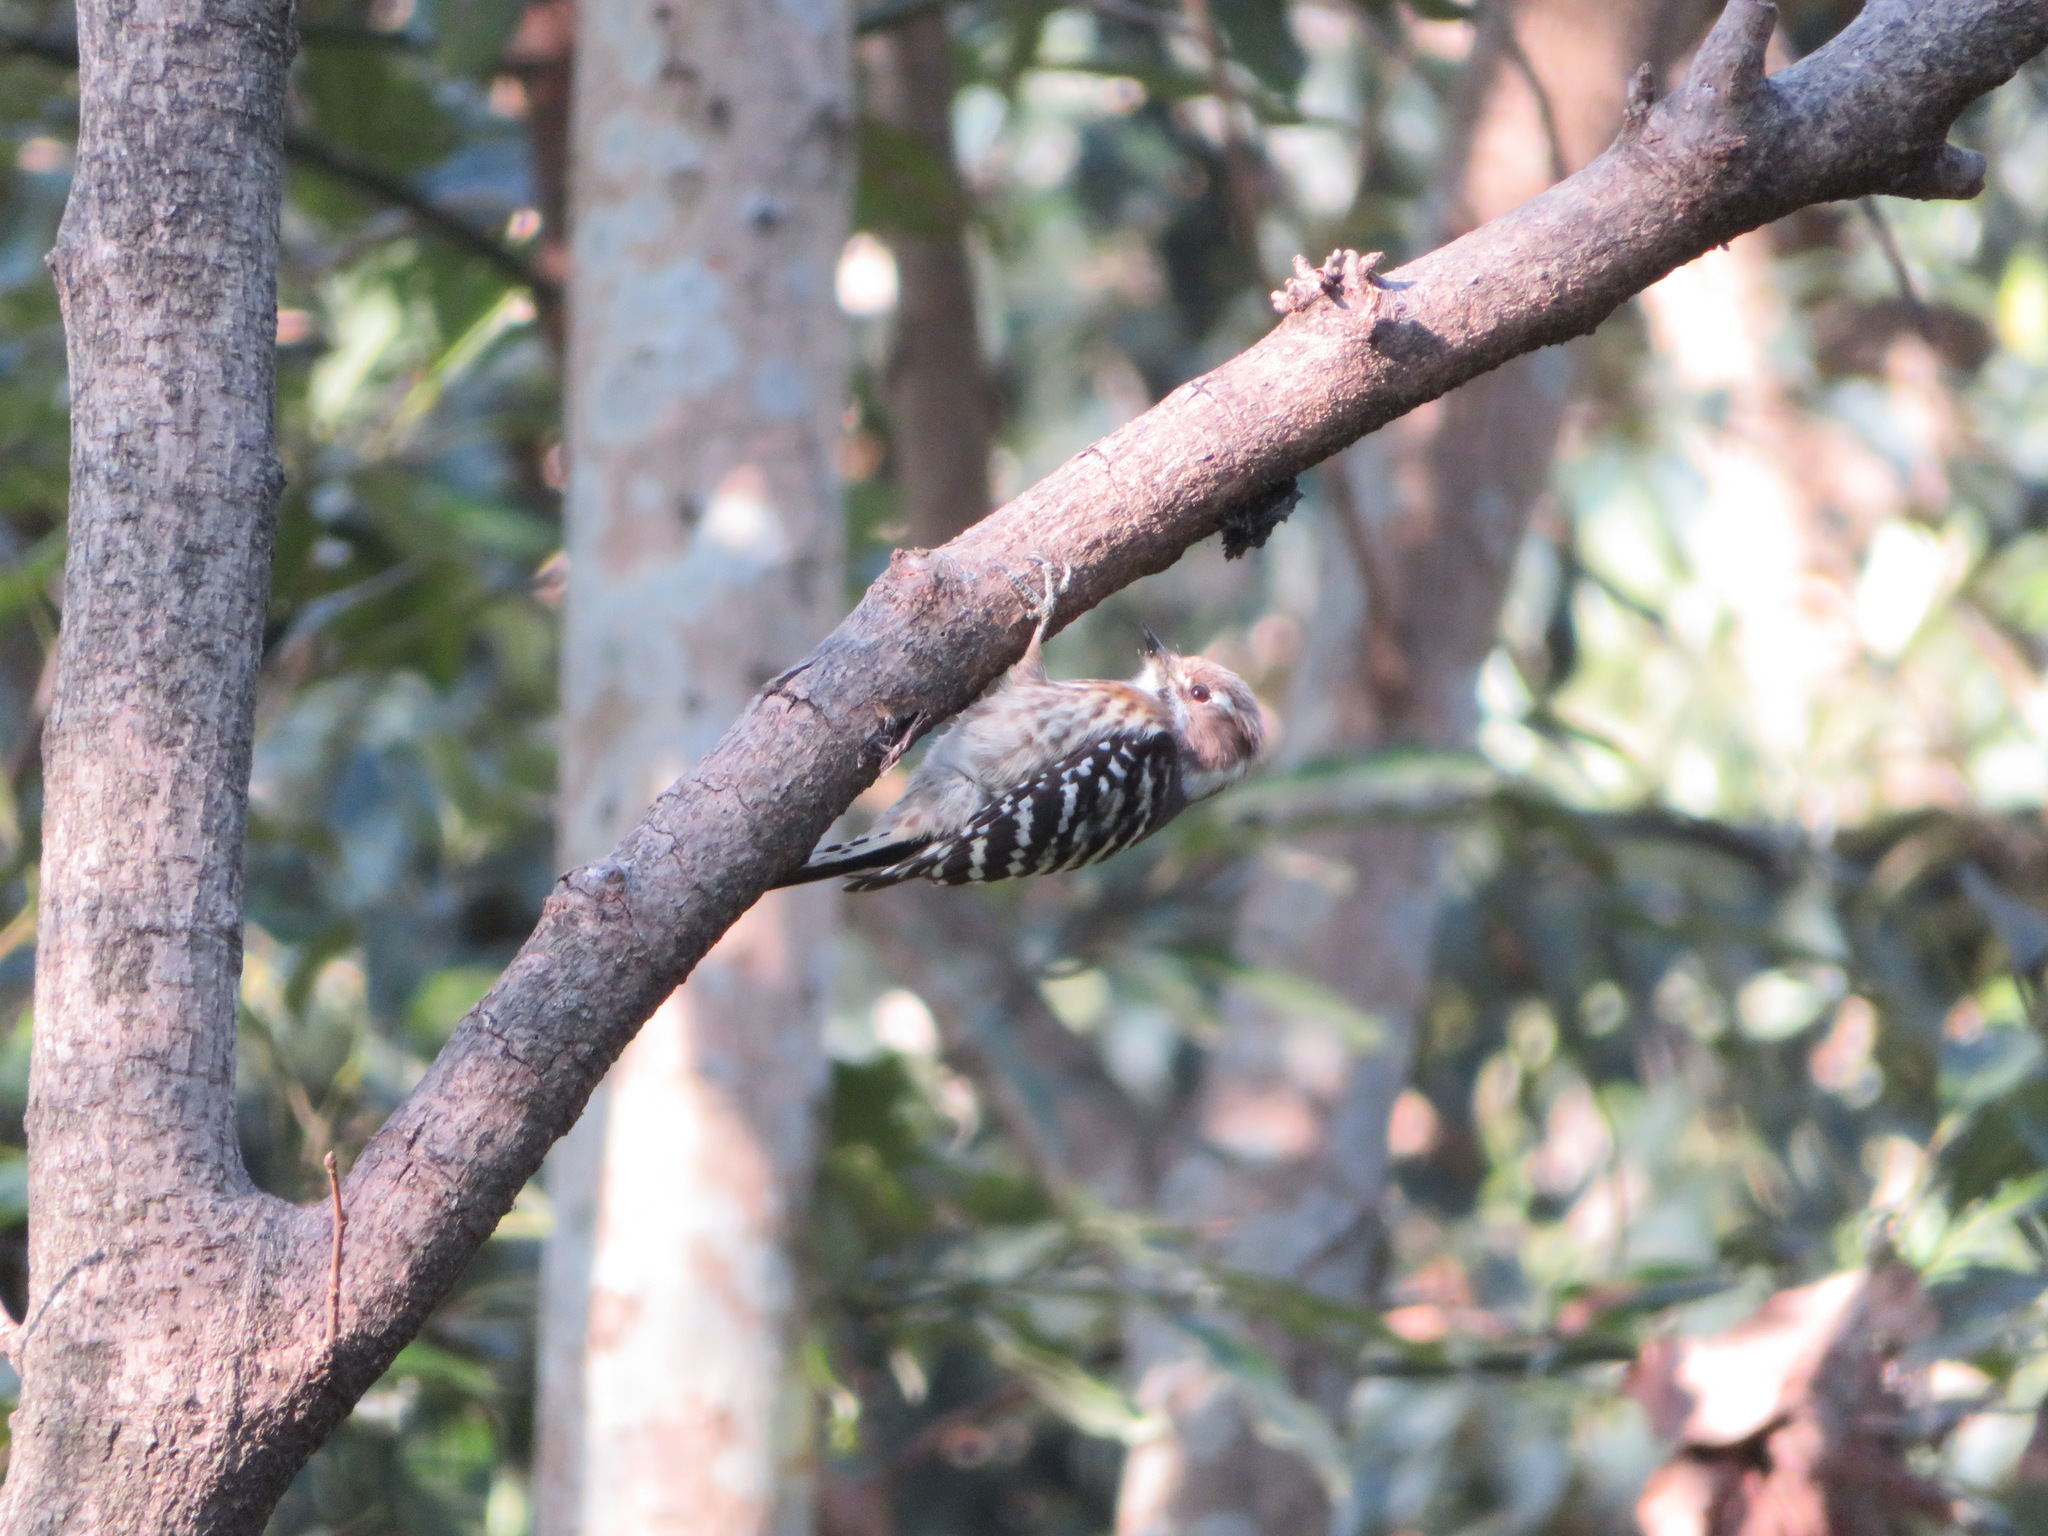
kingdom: Animalia
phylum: Chordata
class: Aves
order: Piciformes
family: Picidae
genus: Yungipicus
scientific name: Yungipicus kizuki
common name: Japanese pygmy woodpecker
